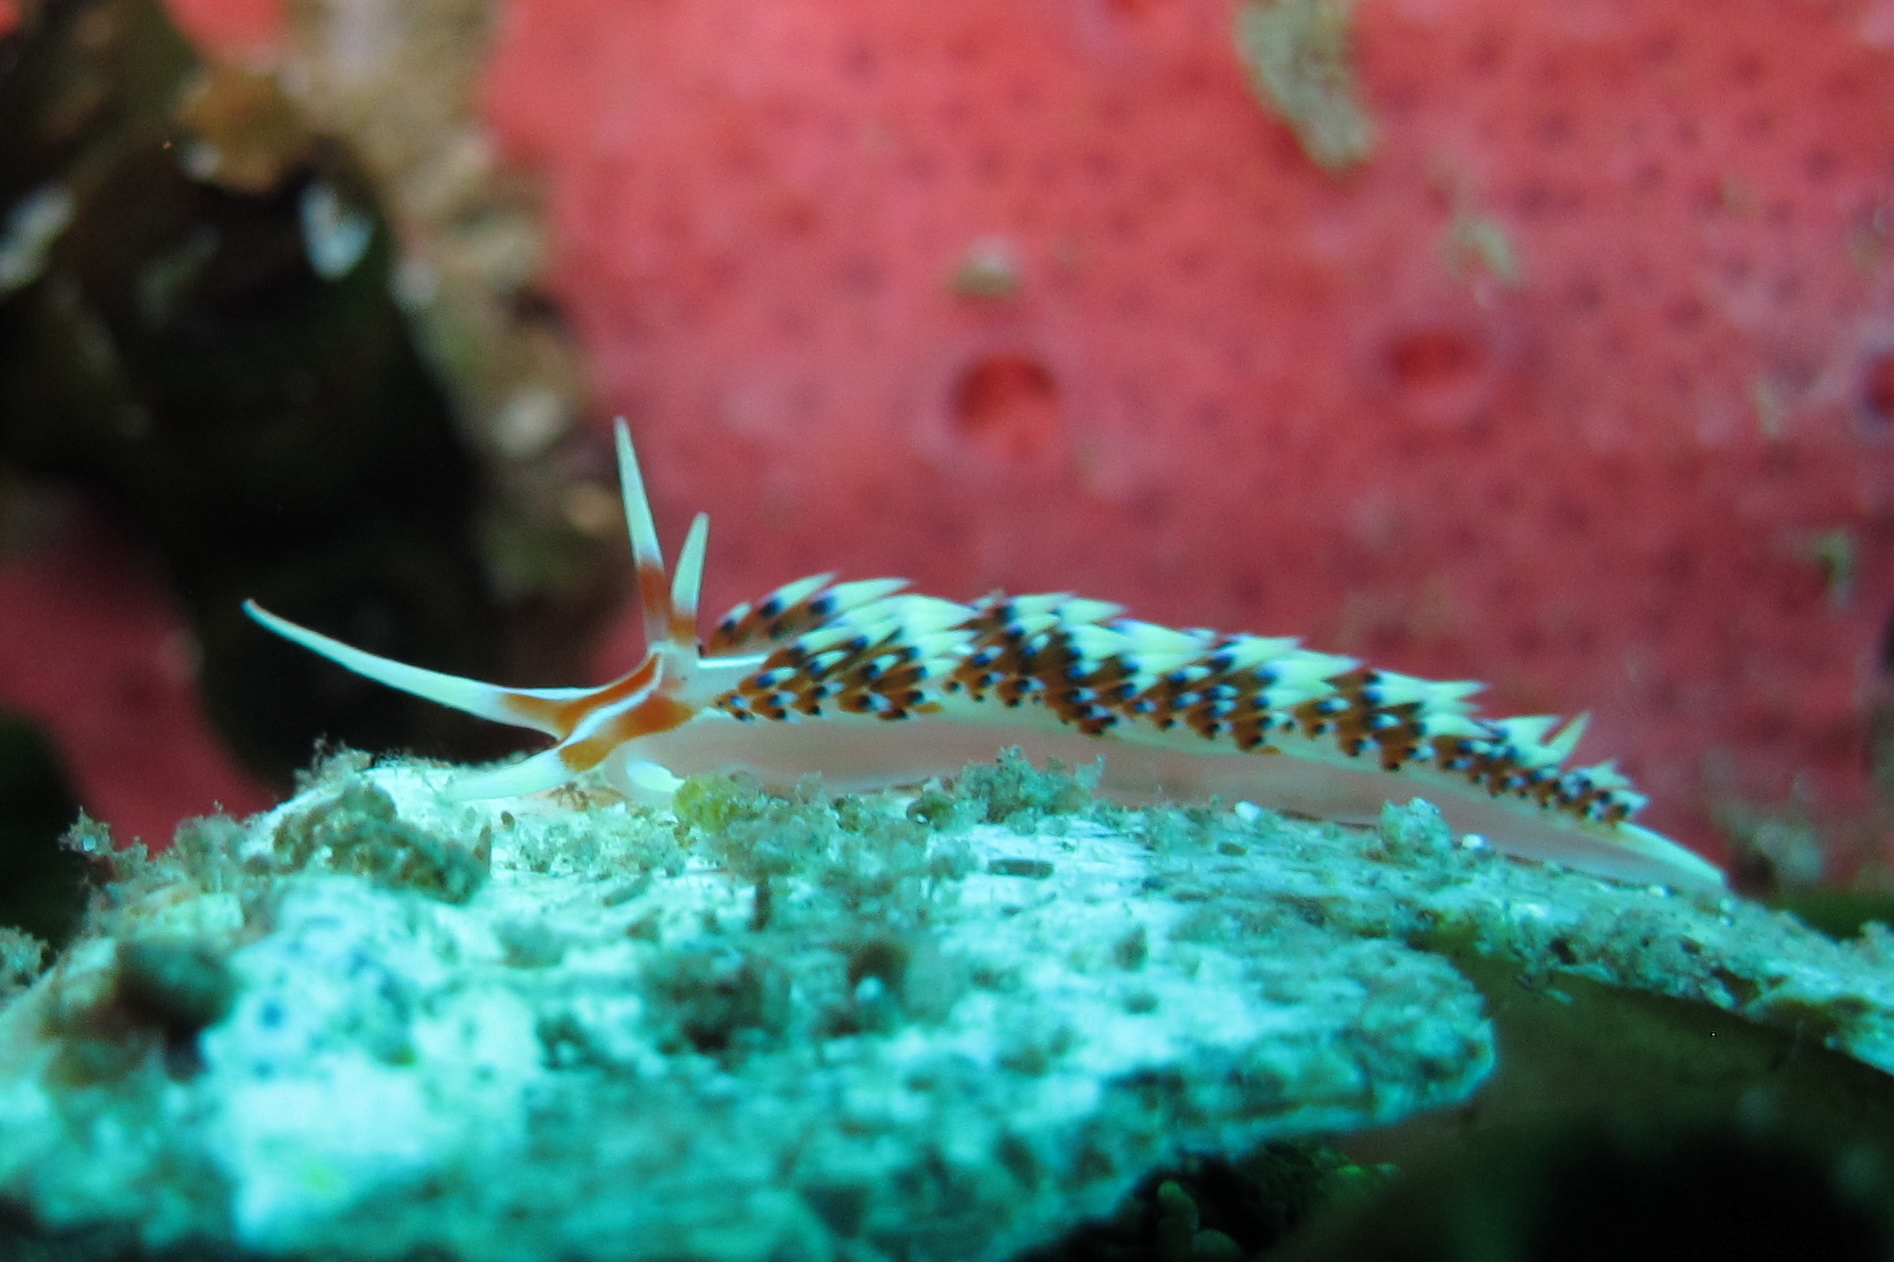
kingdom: Animalia
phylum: Mollusca
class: Gastropoda
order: Nudibranchia
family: Facelinidae
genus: Caloria
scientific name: Caloria indica
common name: Sea slug
